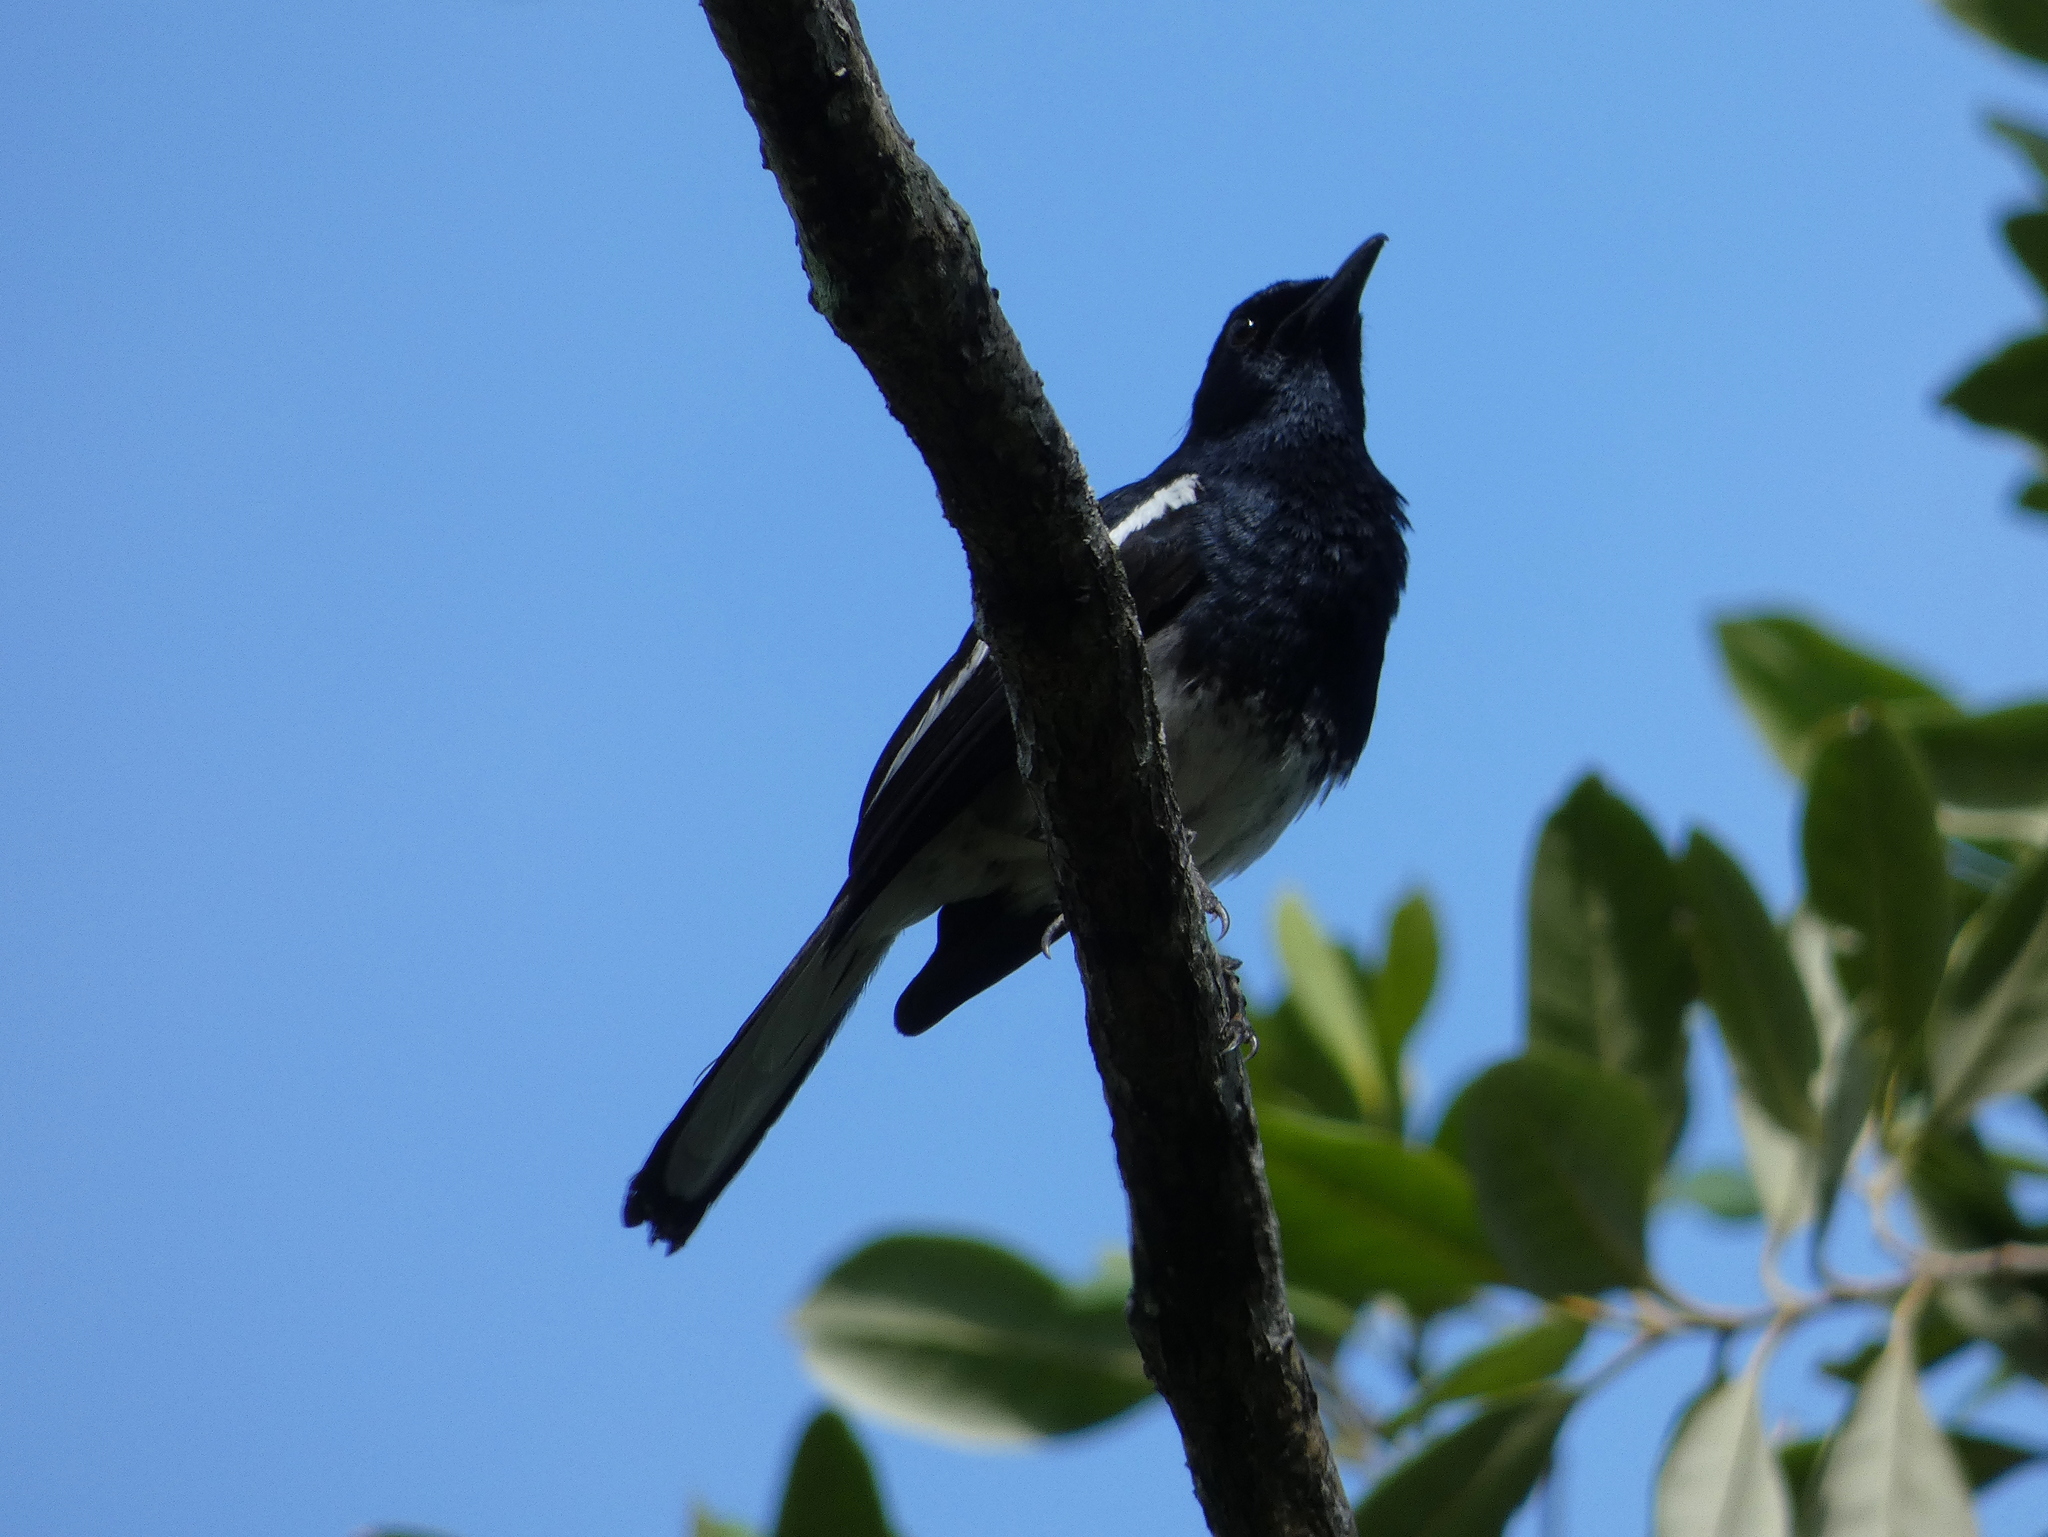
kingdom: Animalia
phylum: Chordata
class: Aves
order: Passeriformes
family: Muscicapidae
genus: Copsychus
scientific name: Copsychus saularis
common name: Oriental magpie-robin
